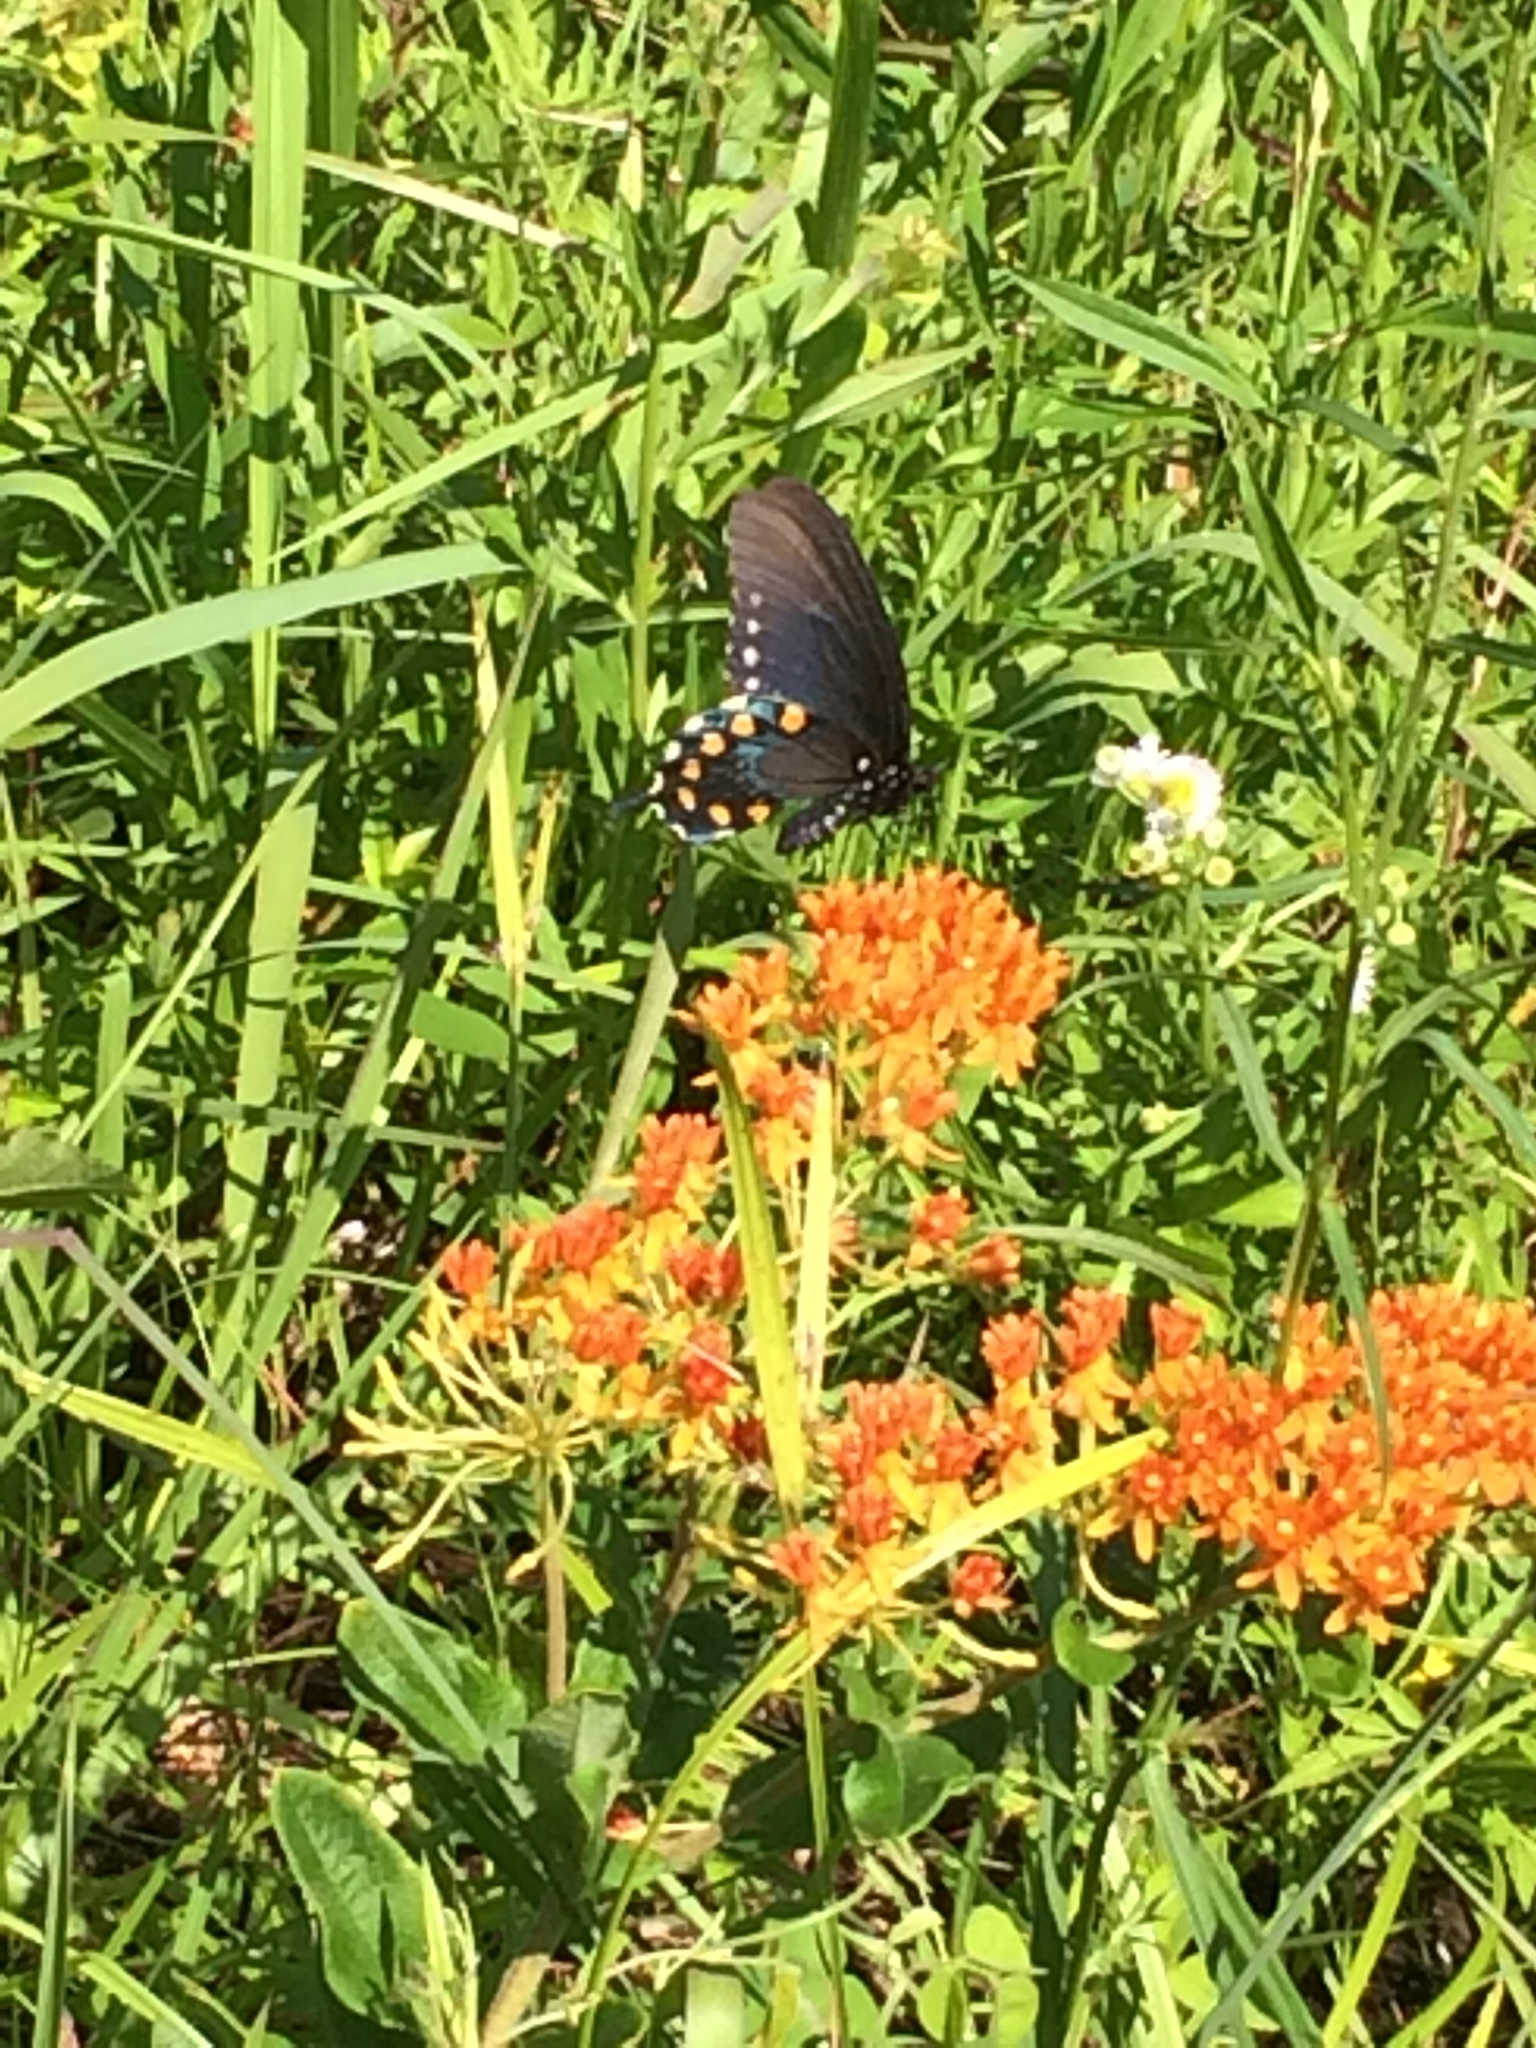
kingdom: Animalia
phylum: Arthropoda
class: Insecta
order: Lepidoptera
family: Papilionidae
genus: Battus
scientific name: Battus philenor
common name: Pipevine swallowtail
